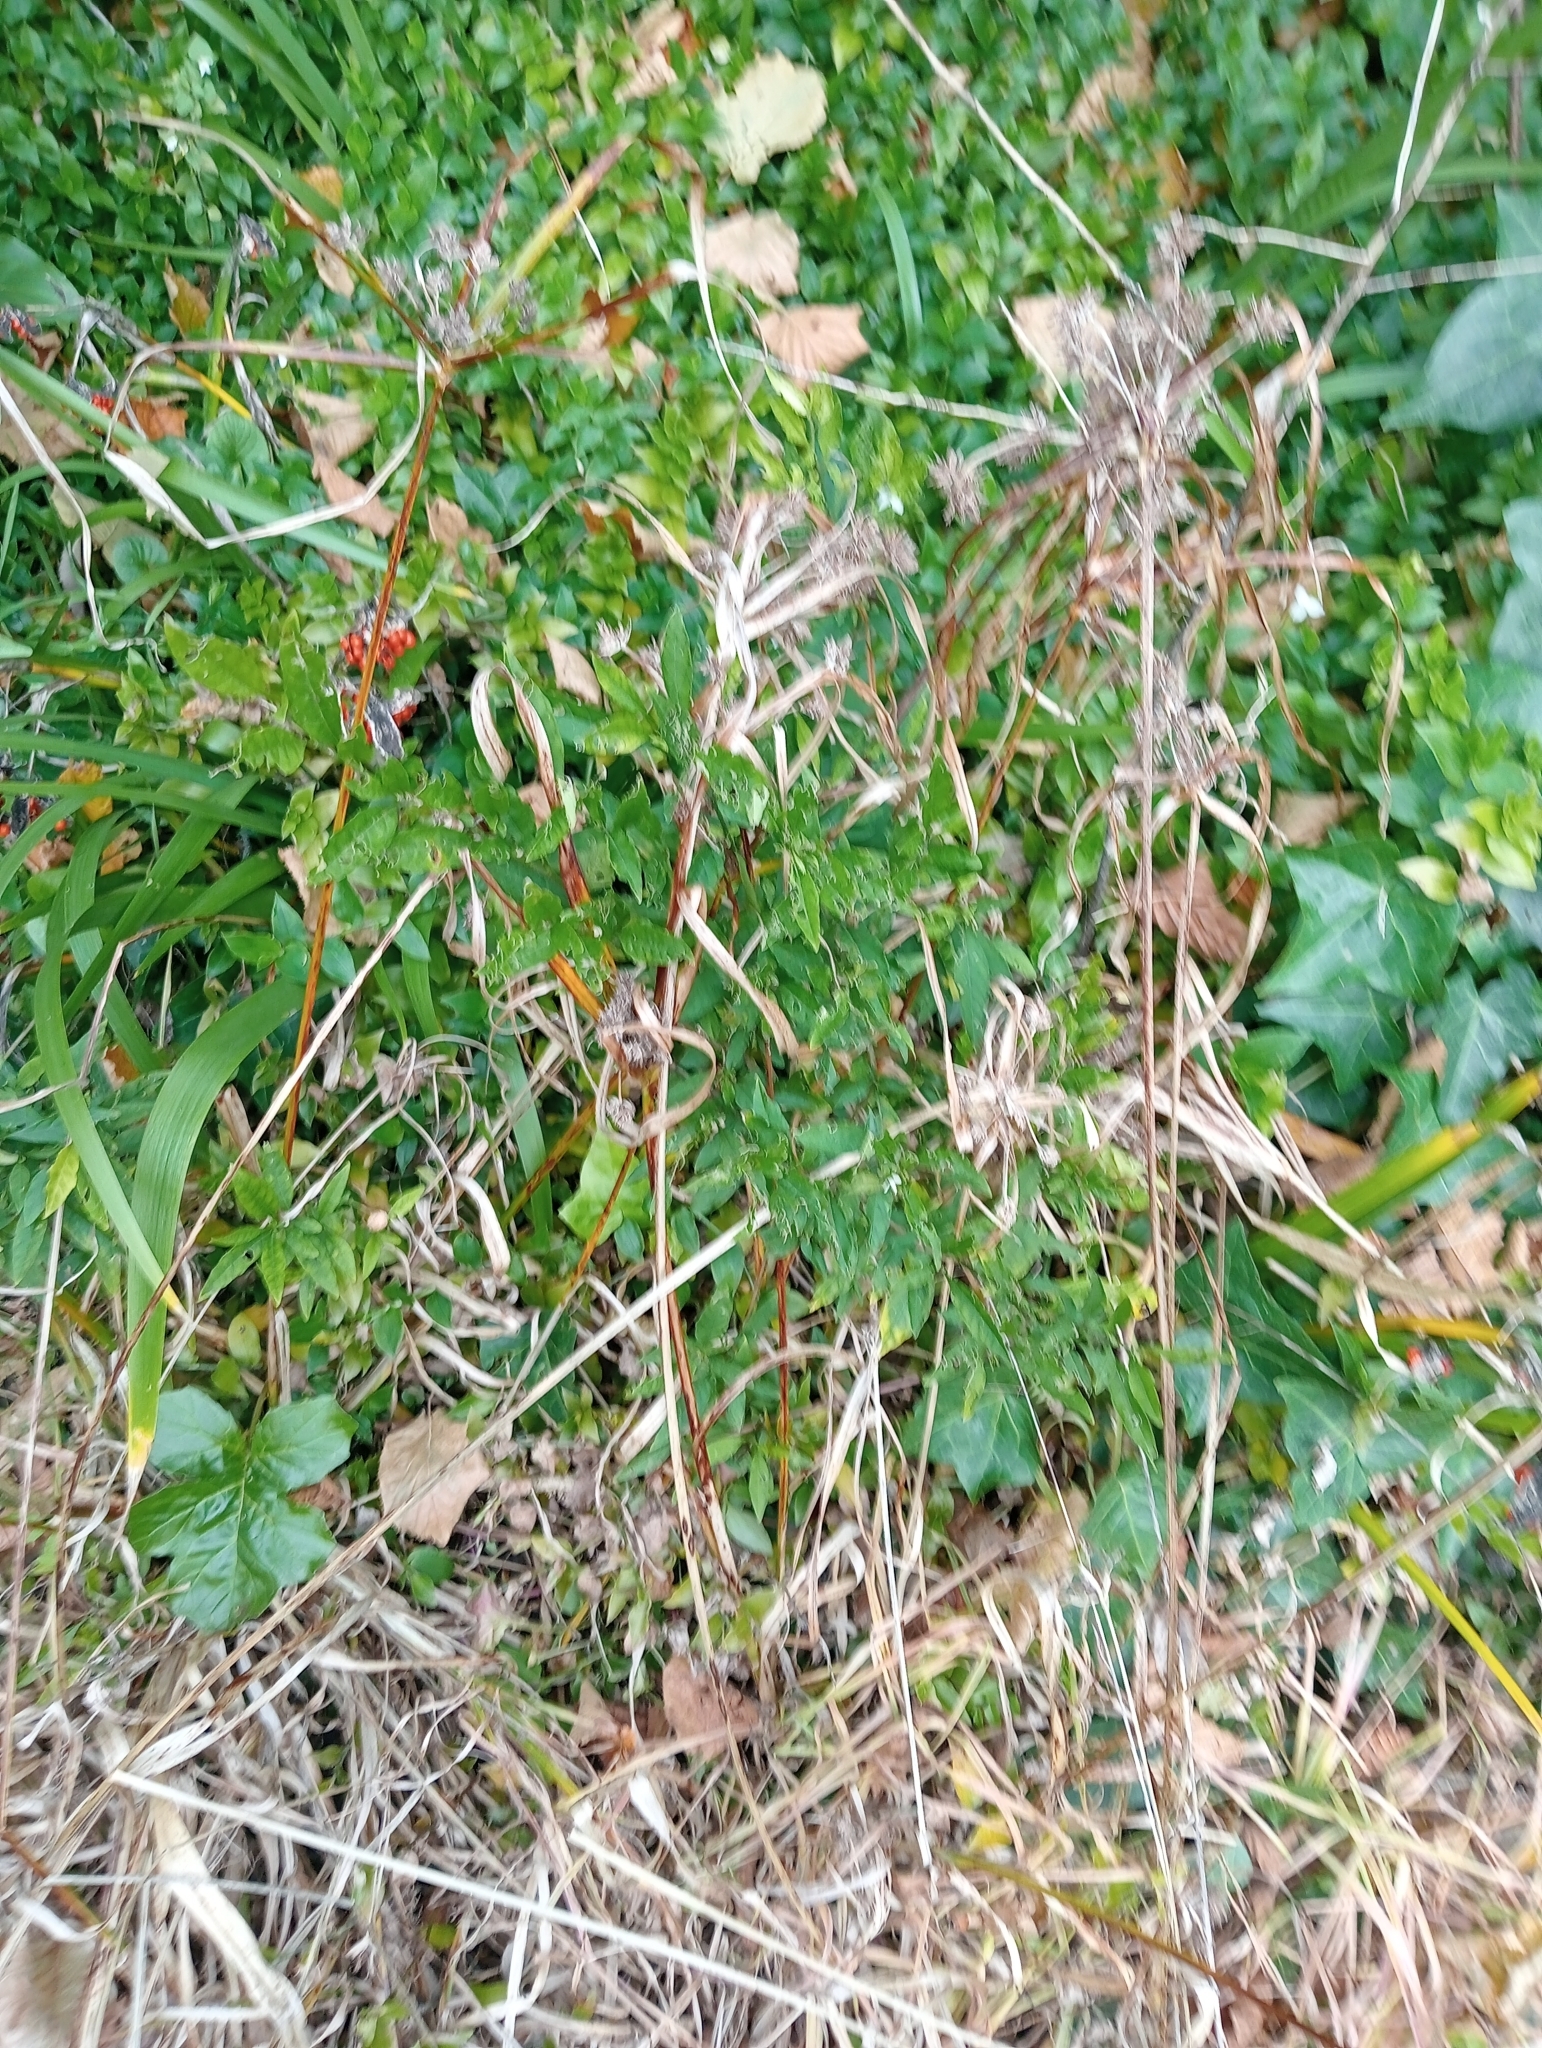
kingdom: Plantae
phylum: Tracheophyta
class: Magnoliopsida
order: Solanales
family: Solanaceae
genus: Solanum
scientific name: Solanum pseudocapsicum
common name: Jerusalem cherry
